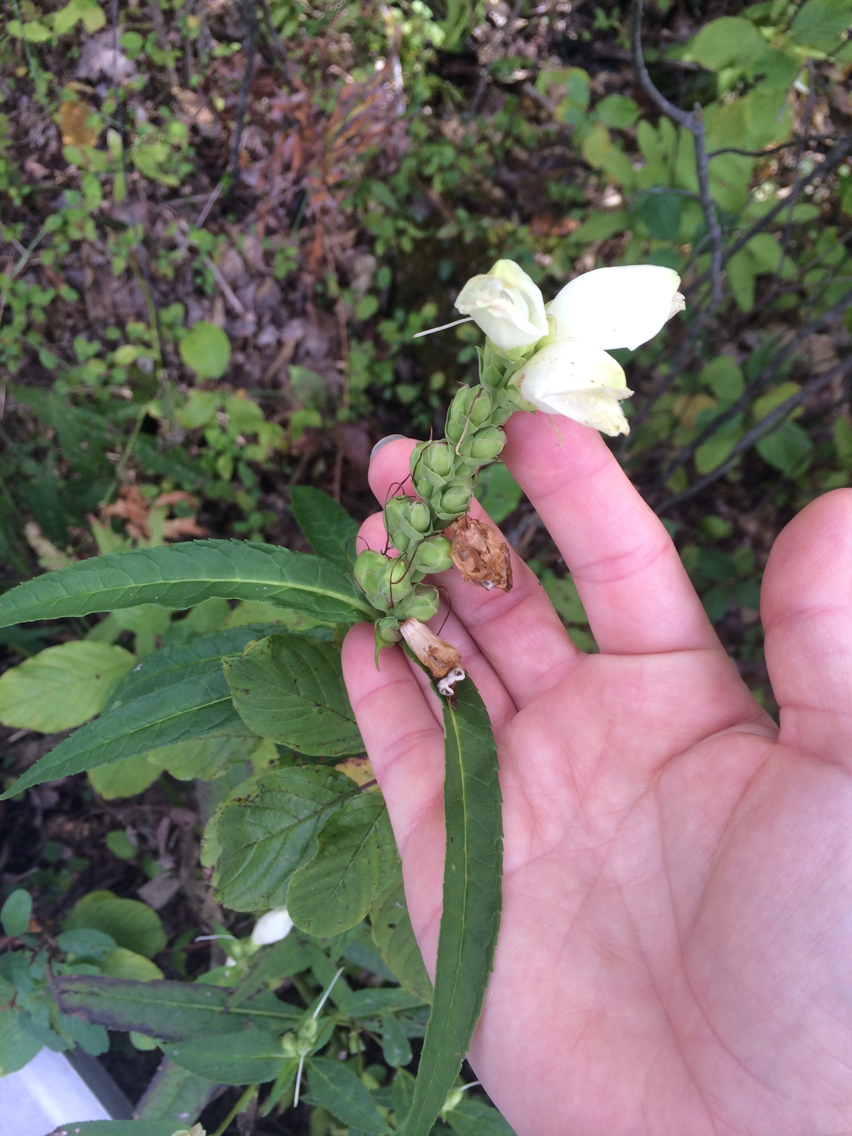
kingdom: Plantae
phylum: Tracheophyta
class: Magnoliopsida
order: Lamiales
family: Plantaginaceae
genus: Chelone
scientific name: Chelone glabra
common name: Snakehead
